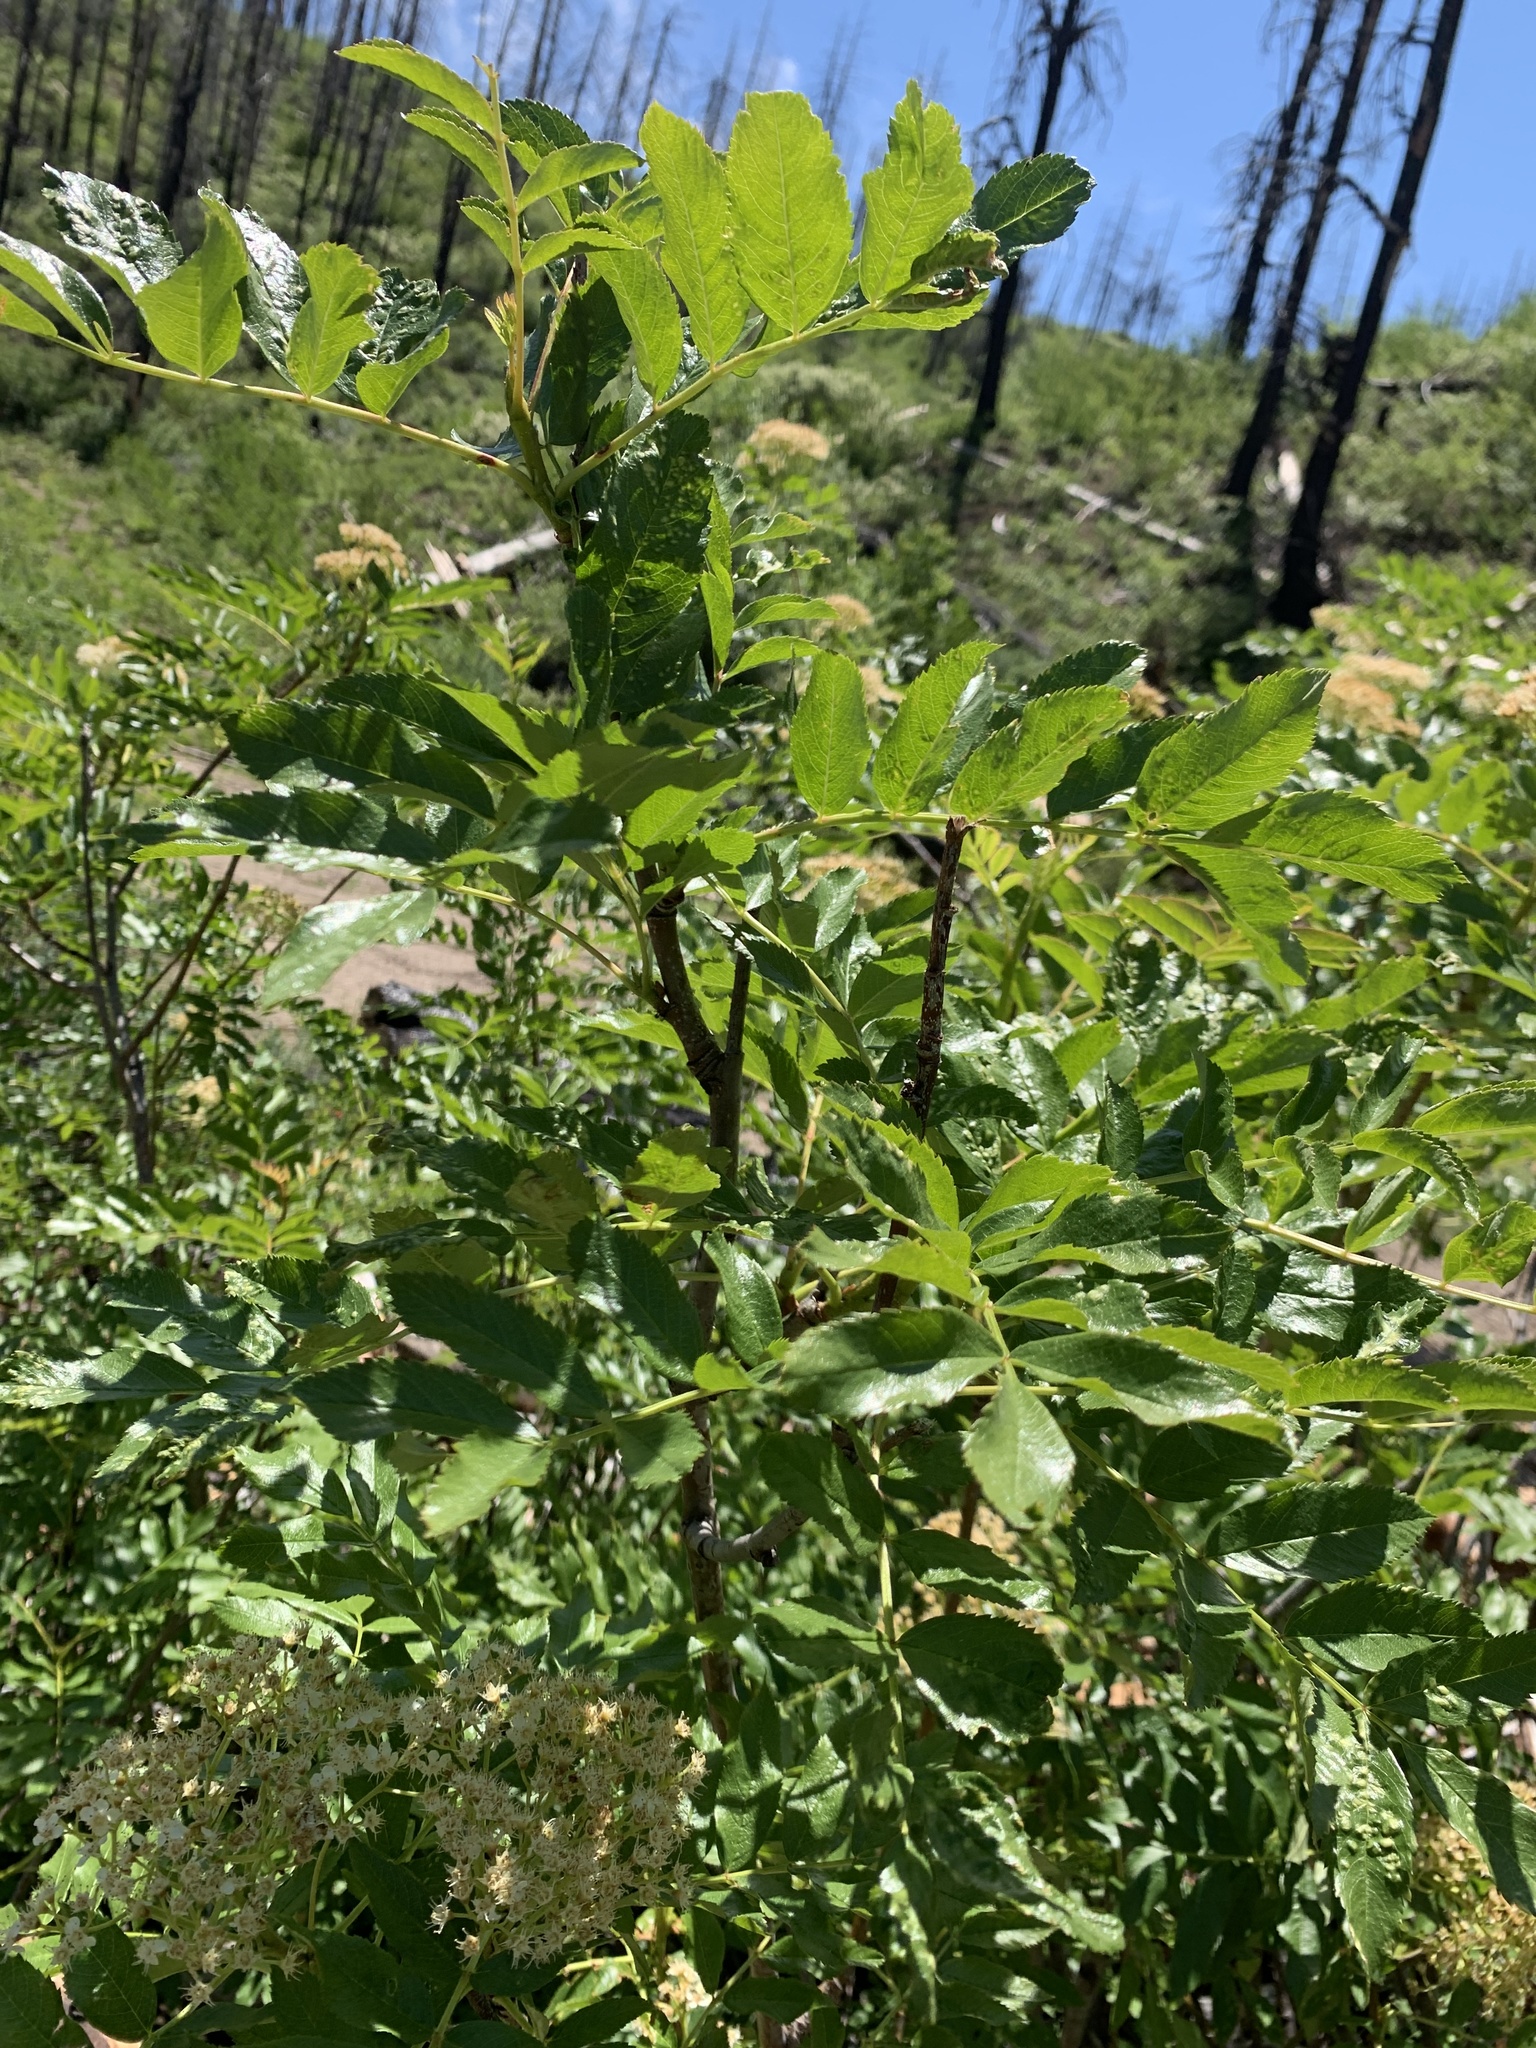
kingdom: Plantae
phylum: Tracheophyta
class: Magnoliopsida
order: Dipsacales
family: Viburnaceae
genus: Sambucus
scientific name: Sambucus cerulea
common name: Blue elder
